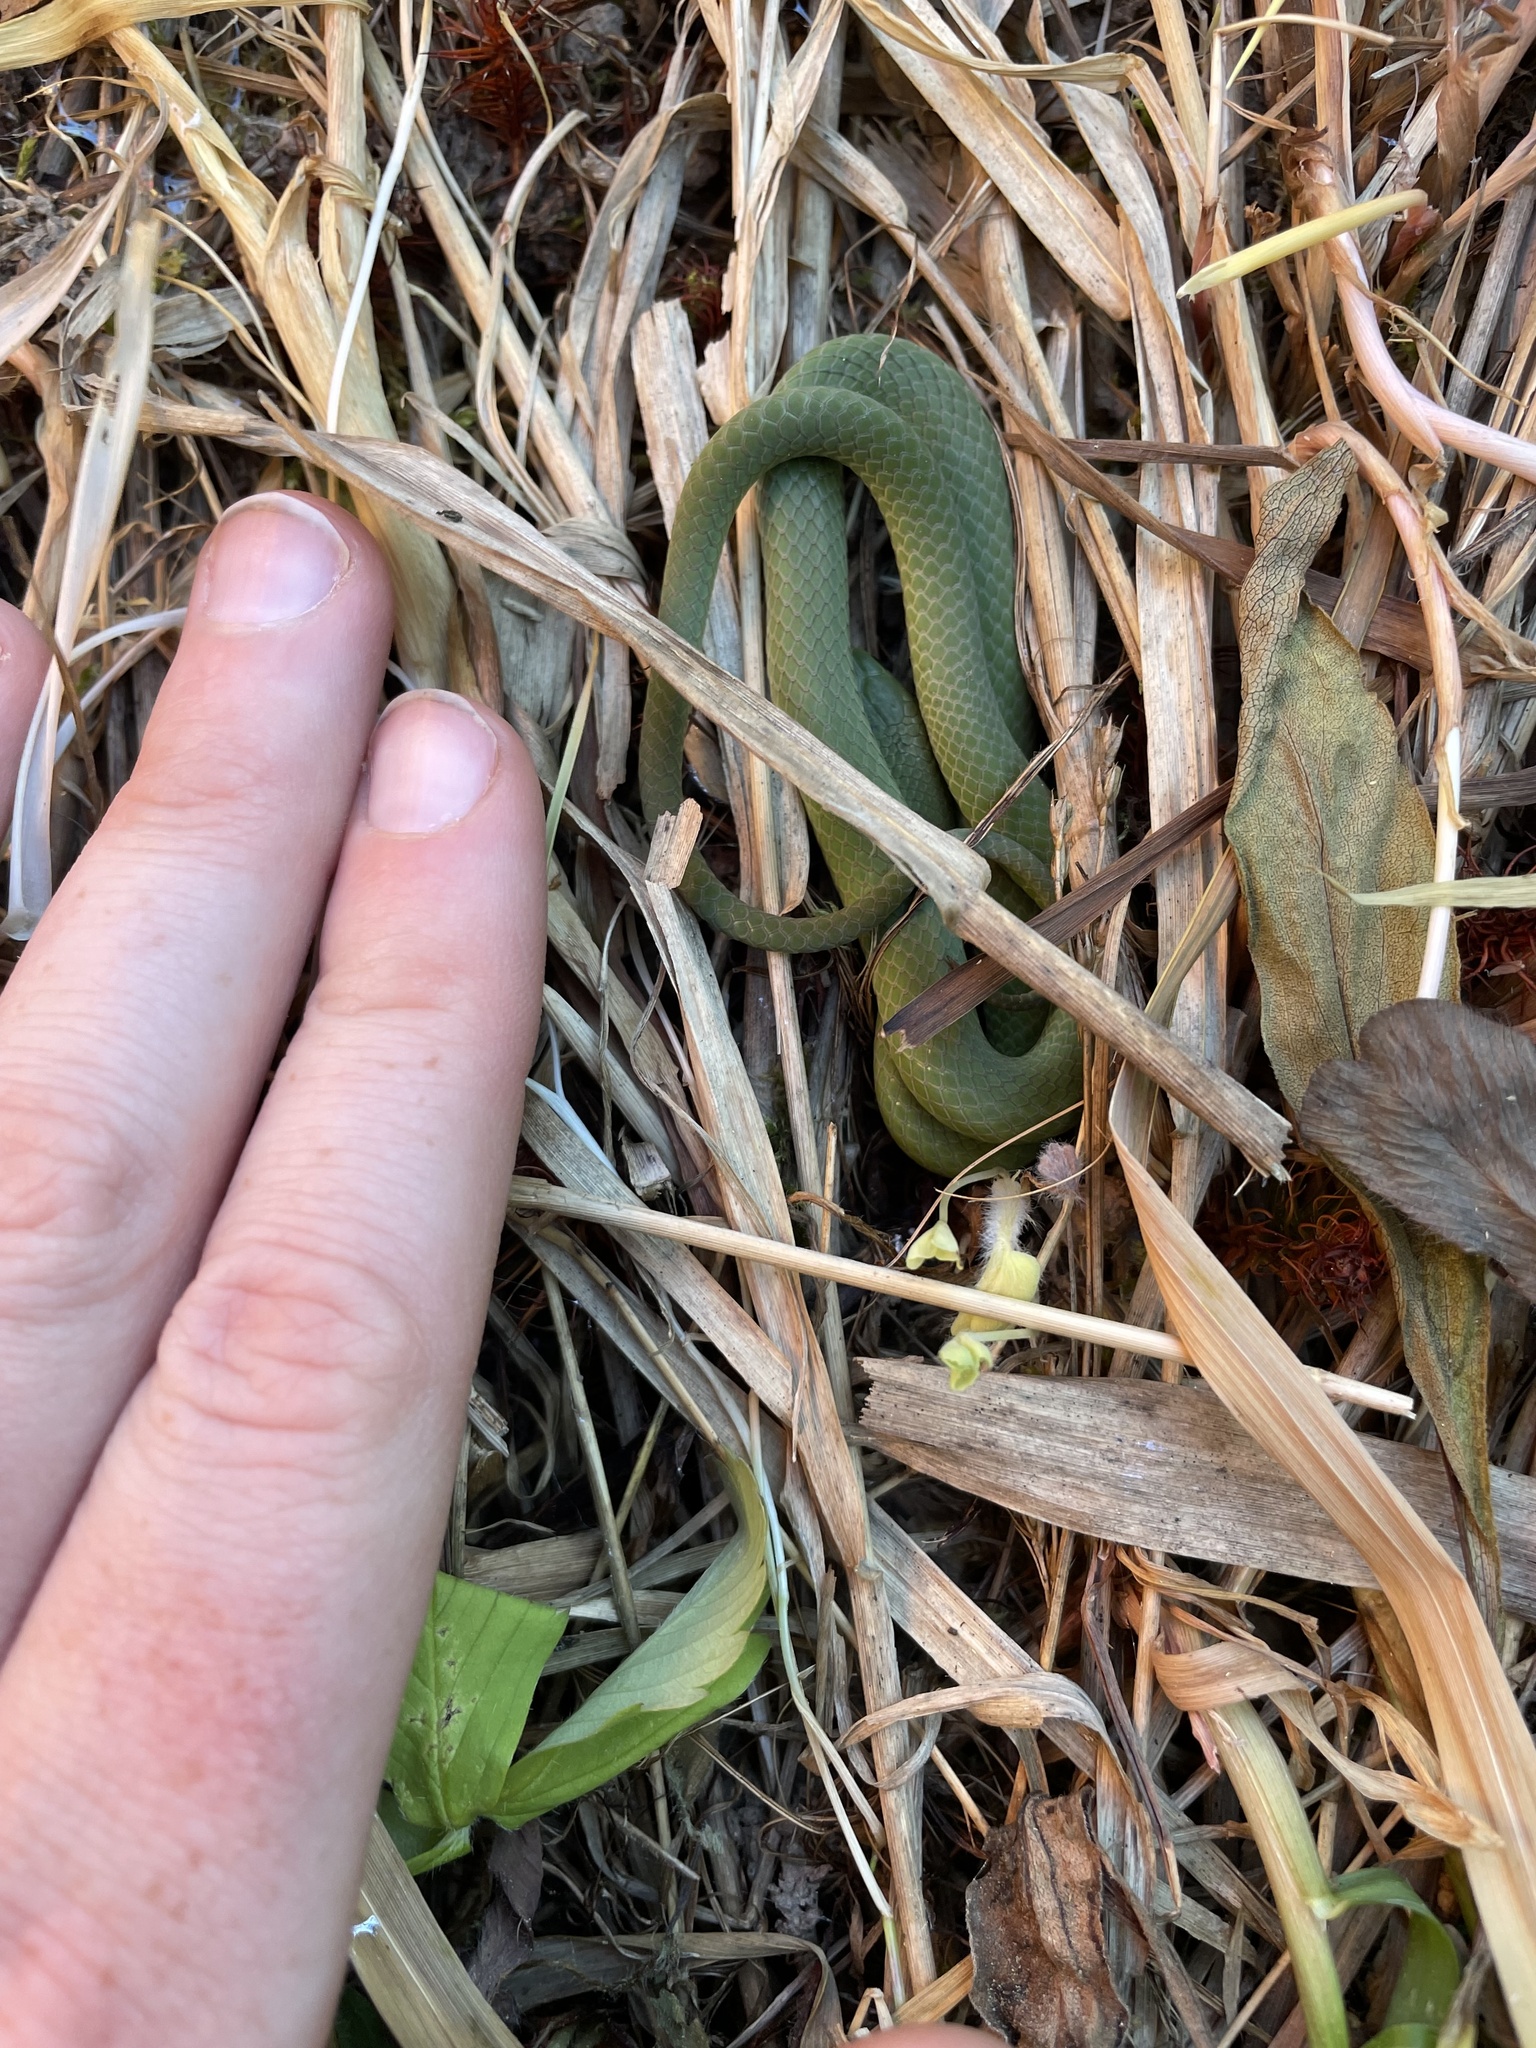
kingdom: Animalia
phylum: Chordata
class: Squamata
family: Colubridae
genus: Opheodrys
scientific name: Opheodrys vernalis
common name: Smooth green snake
